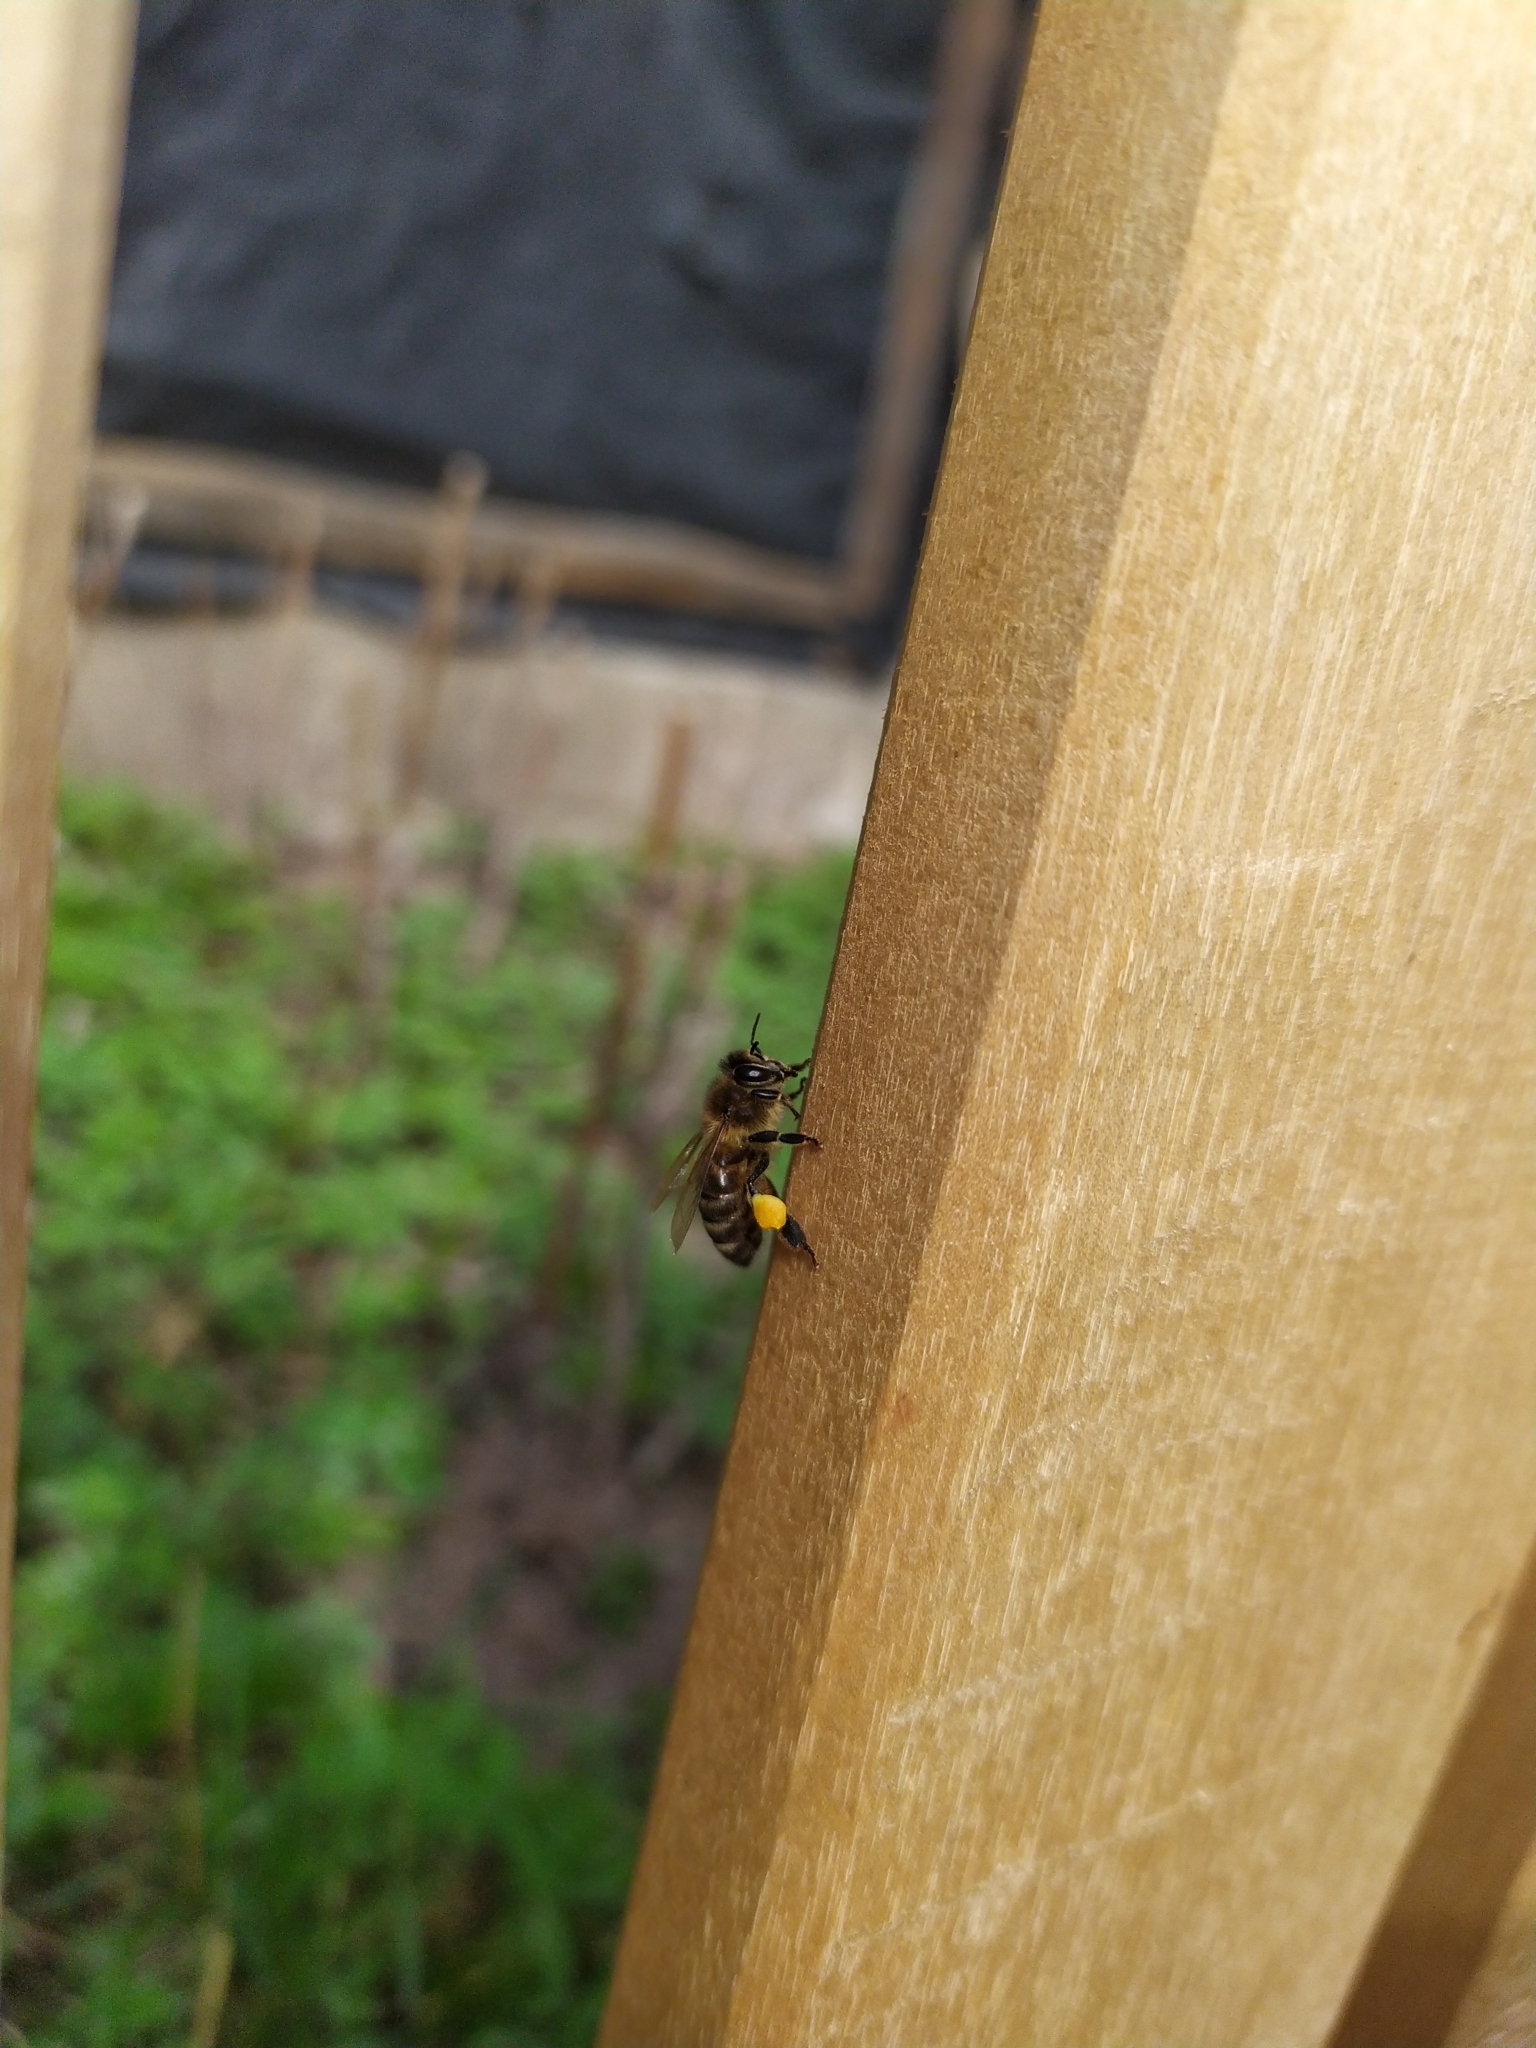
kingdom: Animalia
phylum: Arthropoda
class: Insecta
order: Hymenoptera
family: Apidae
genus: Apis
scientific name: Apis mellifera
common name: Honey bee
